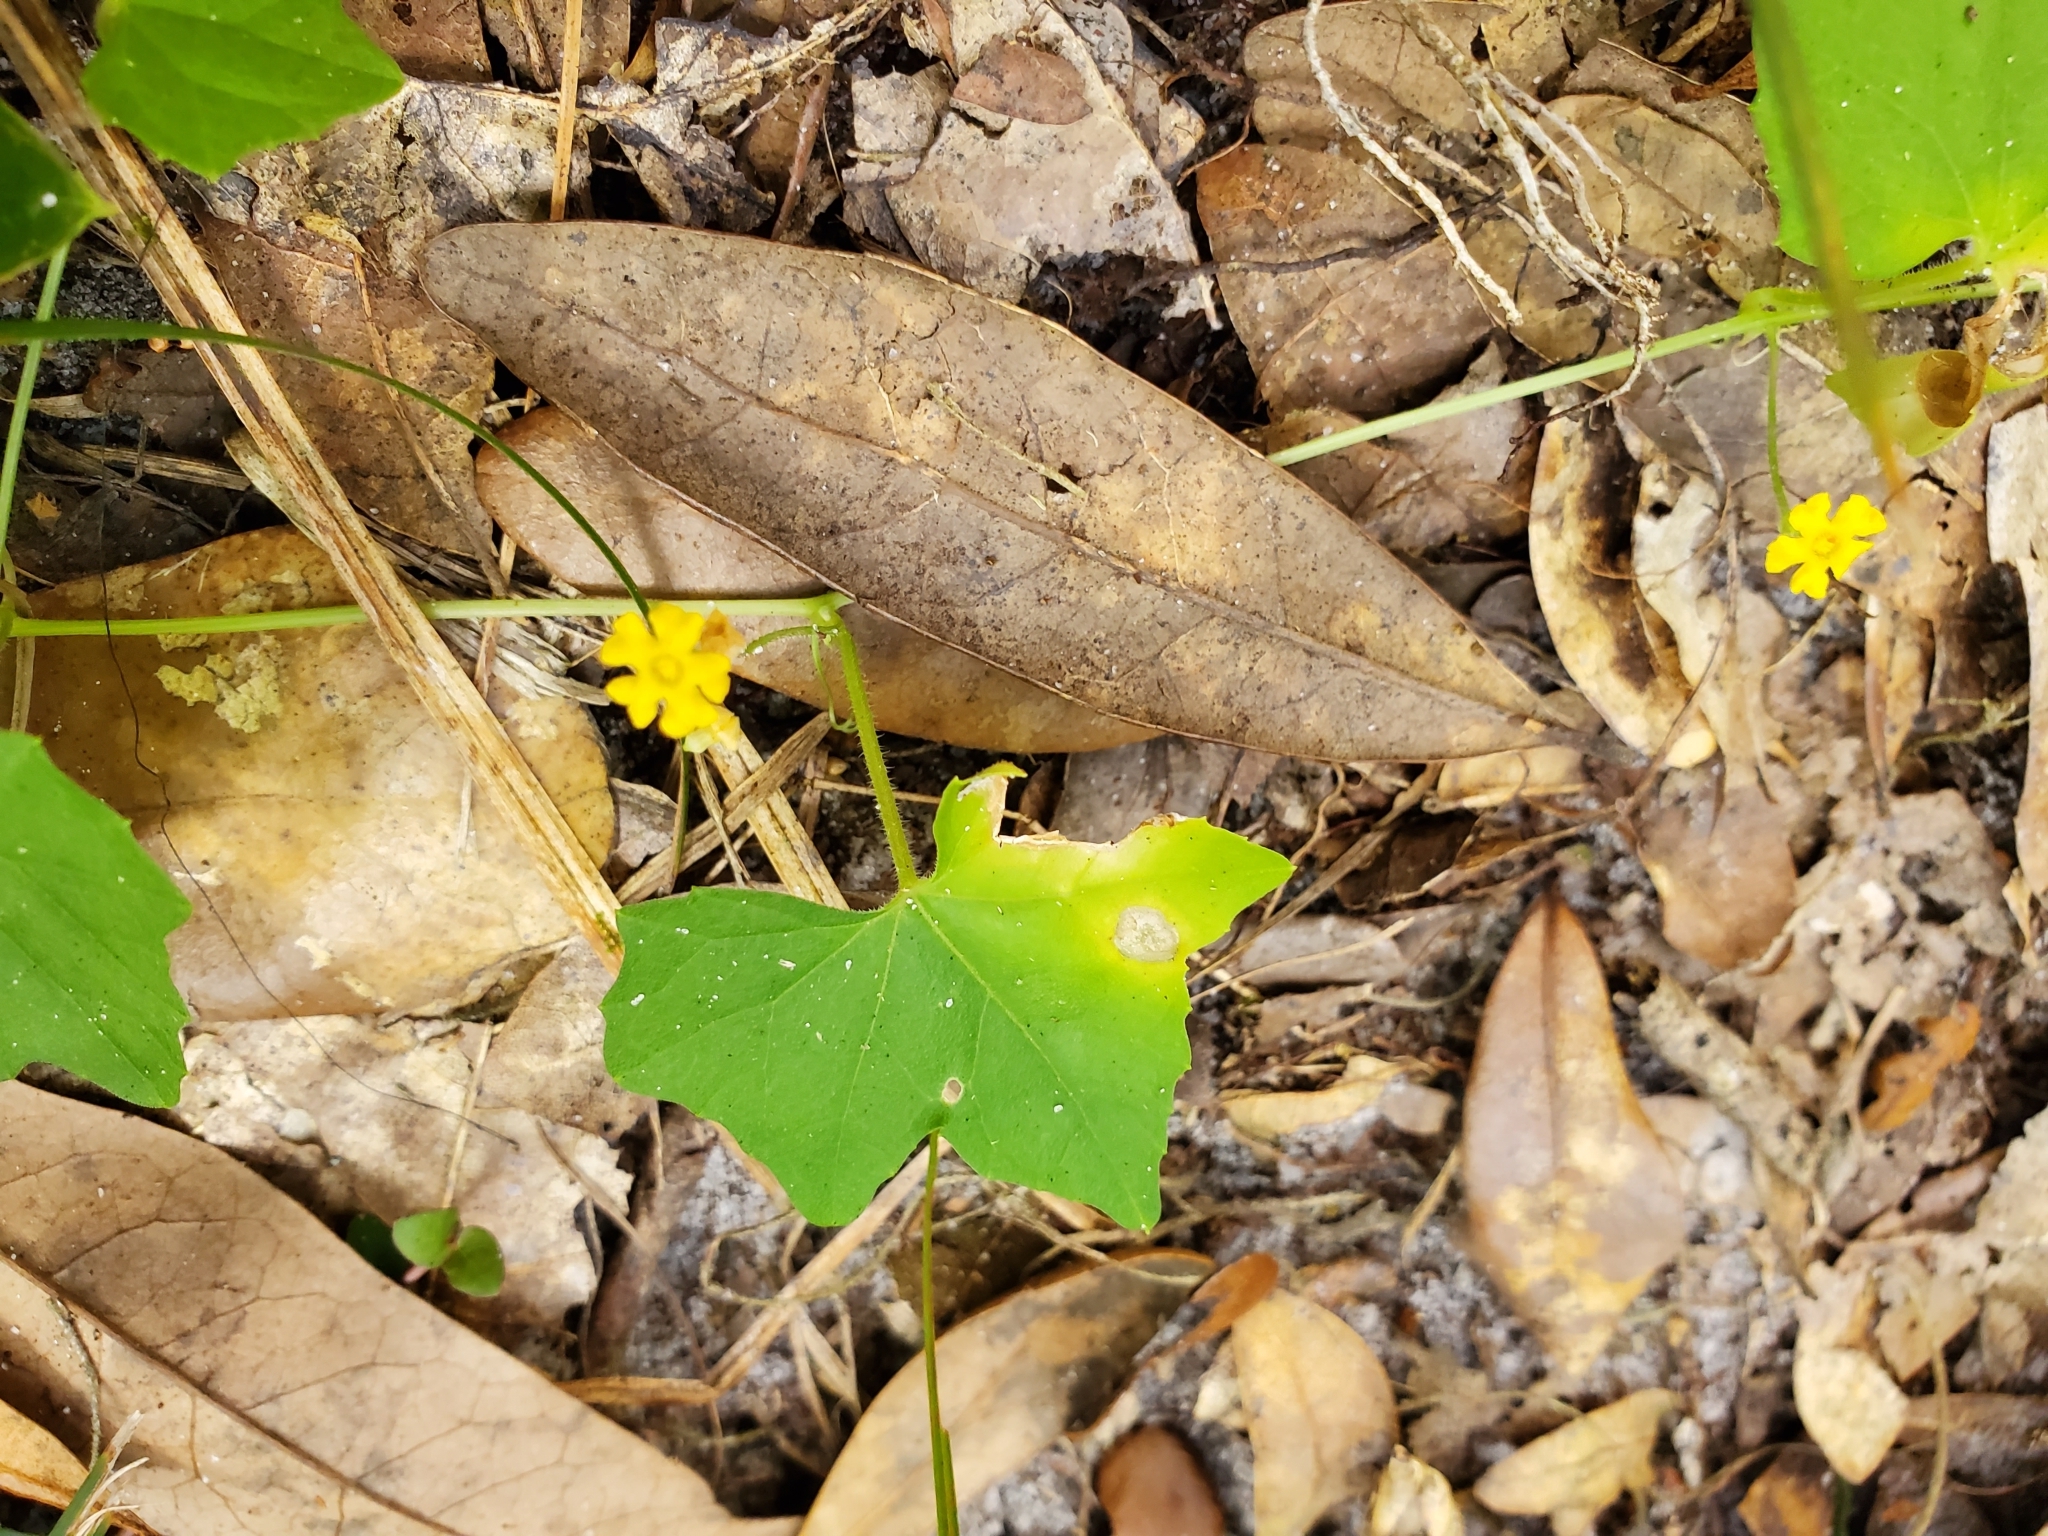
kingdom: Plantae
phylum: Tracheophyta
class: Magnoliopsida
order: Cucurbitales
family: Cucurbitaceae
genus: Melothria
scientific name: Melothria pendula
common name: Creeping-cucumber
